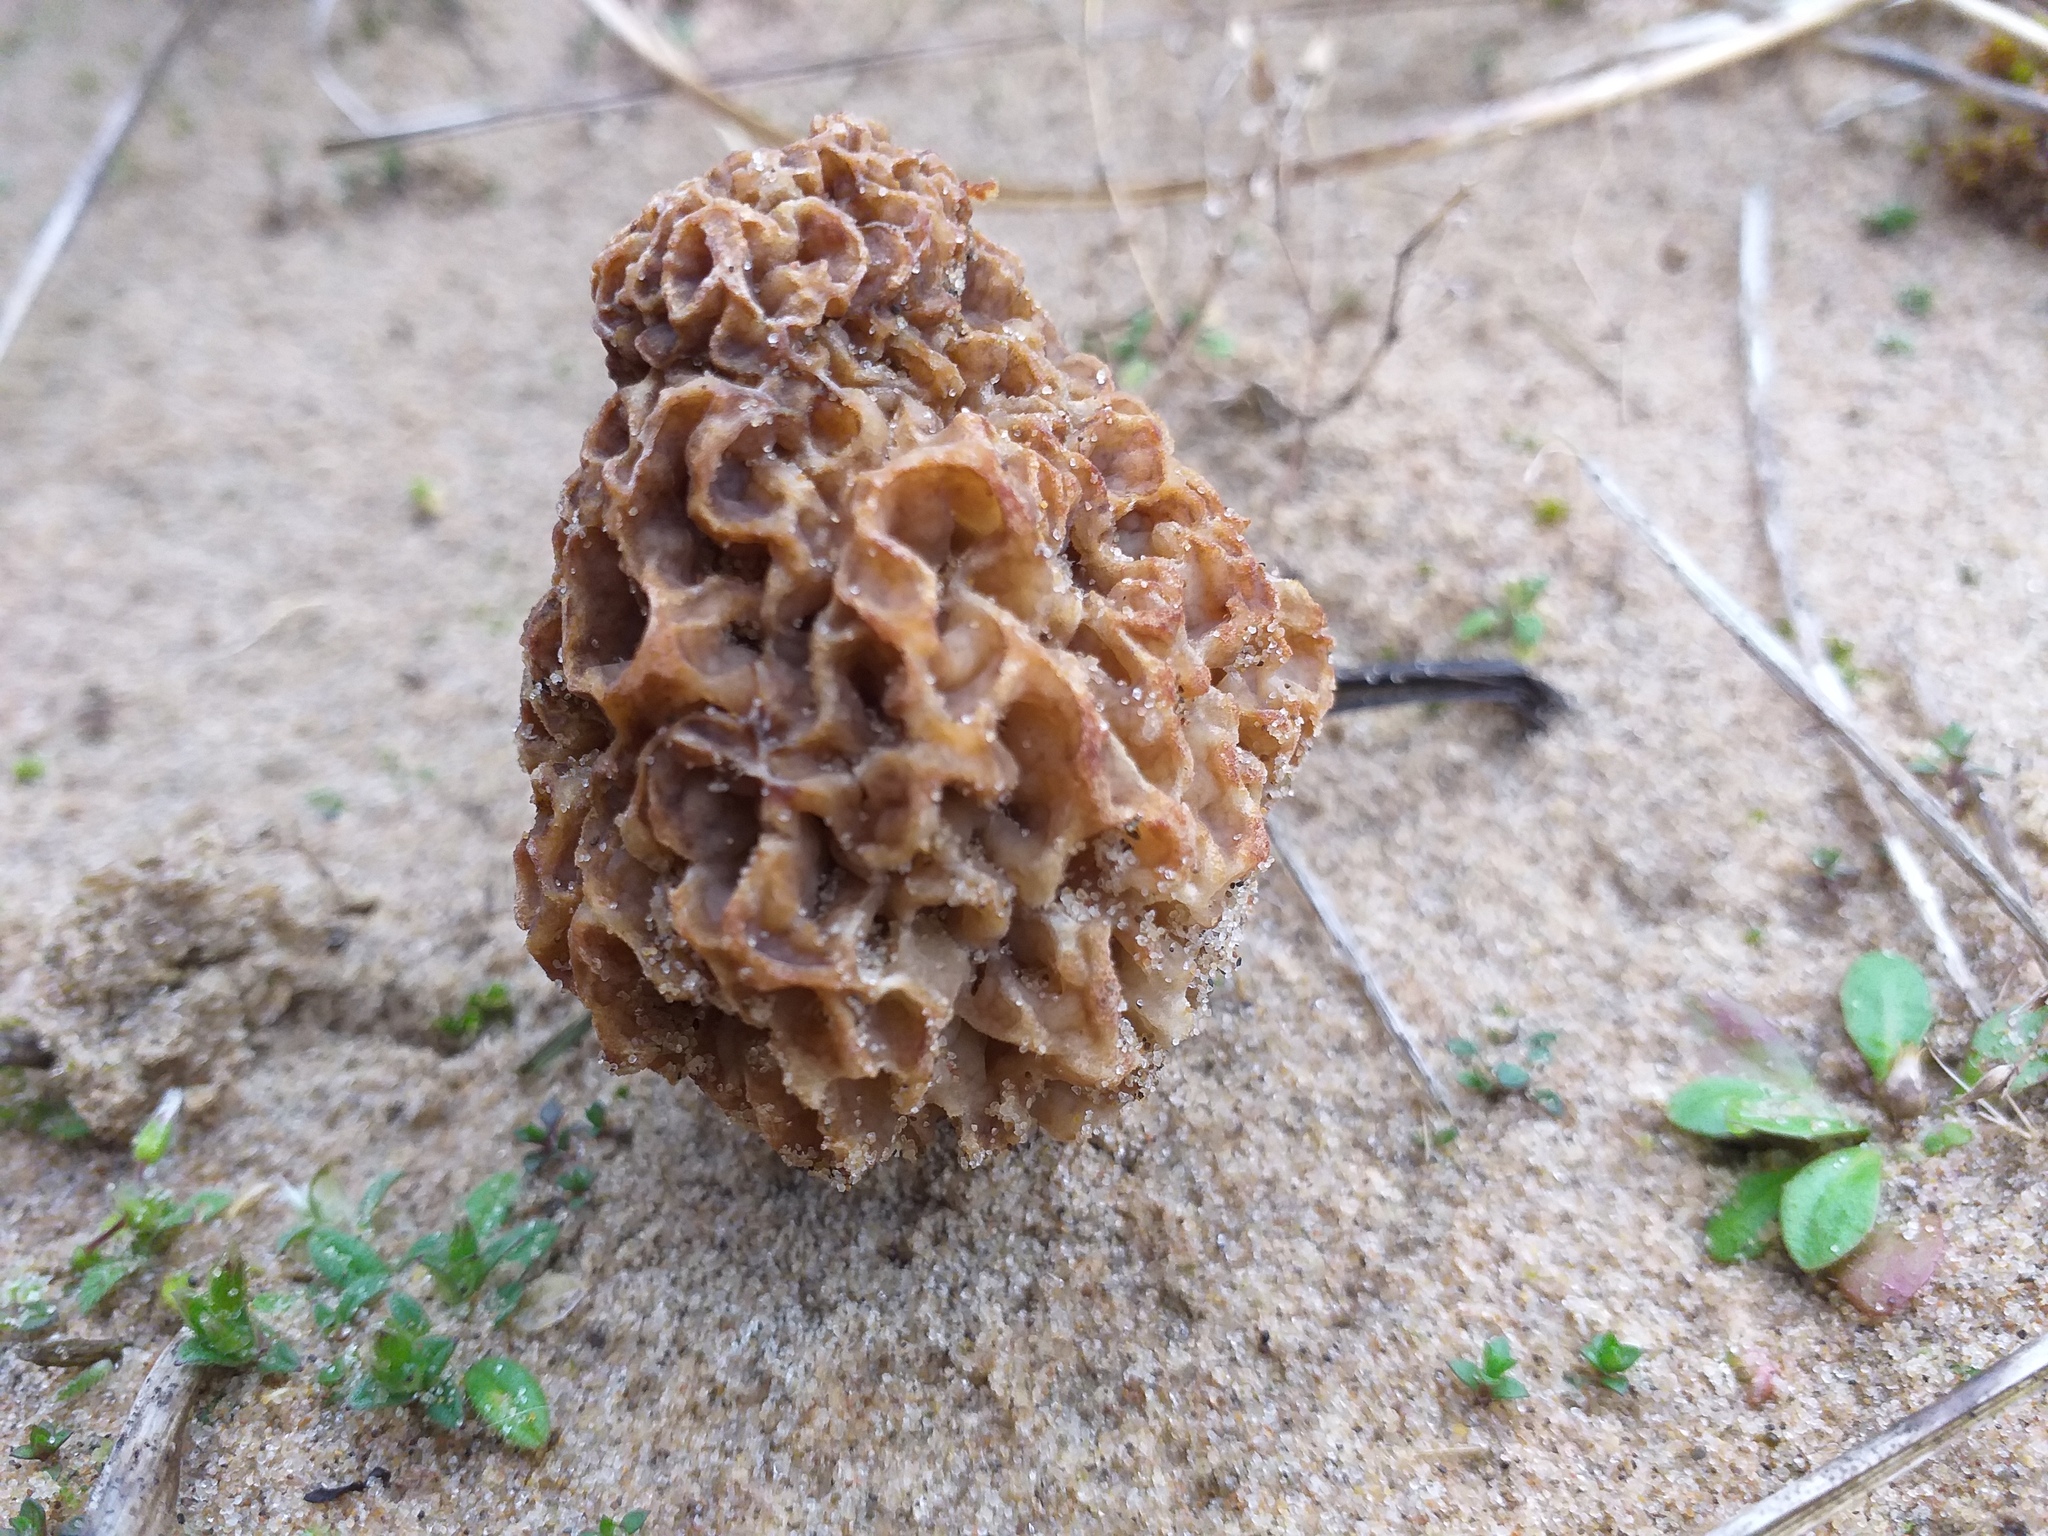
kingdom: Fungi
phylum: Ascomycota
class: Pezizomycetes
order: Pezizales
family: Morchellaceae
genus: Morchella
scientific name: Morchella esculenta
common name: Morel
